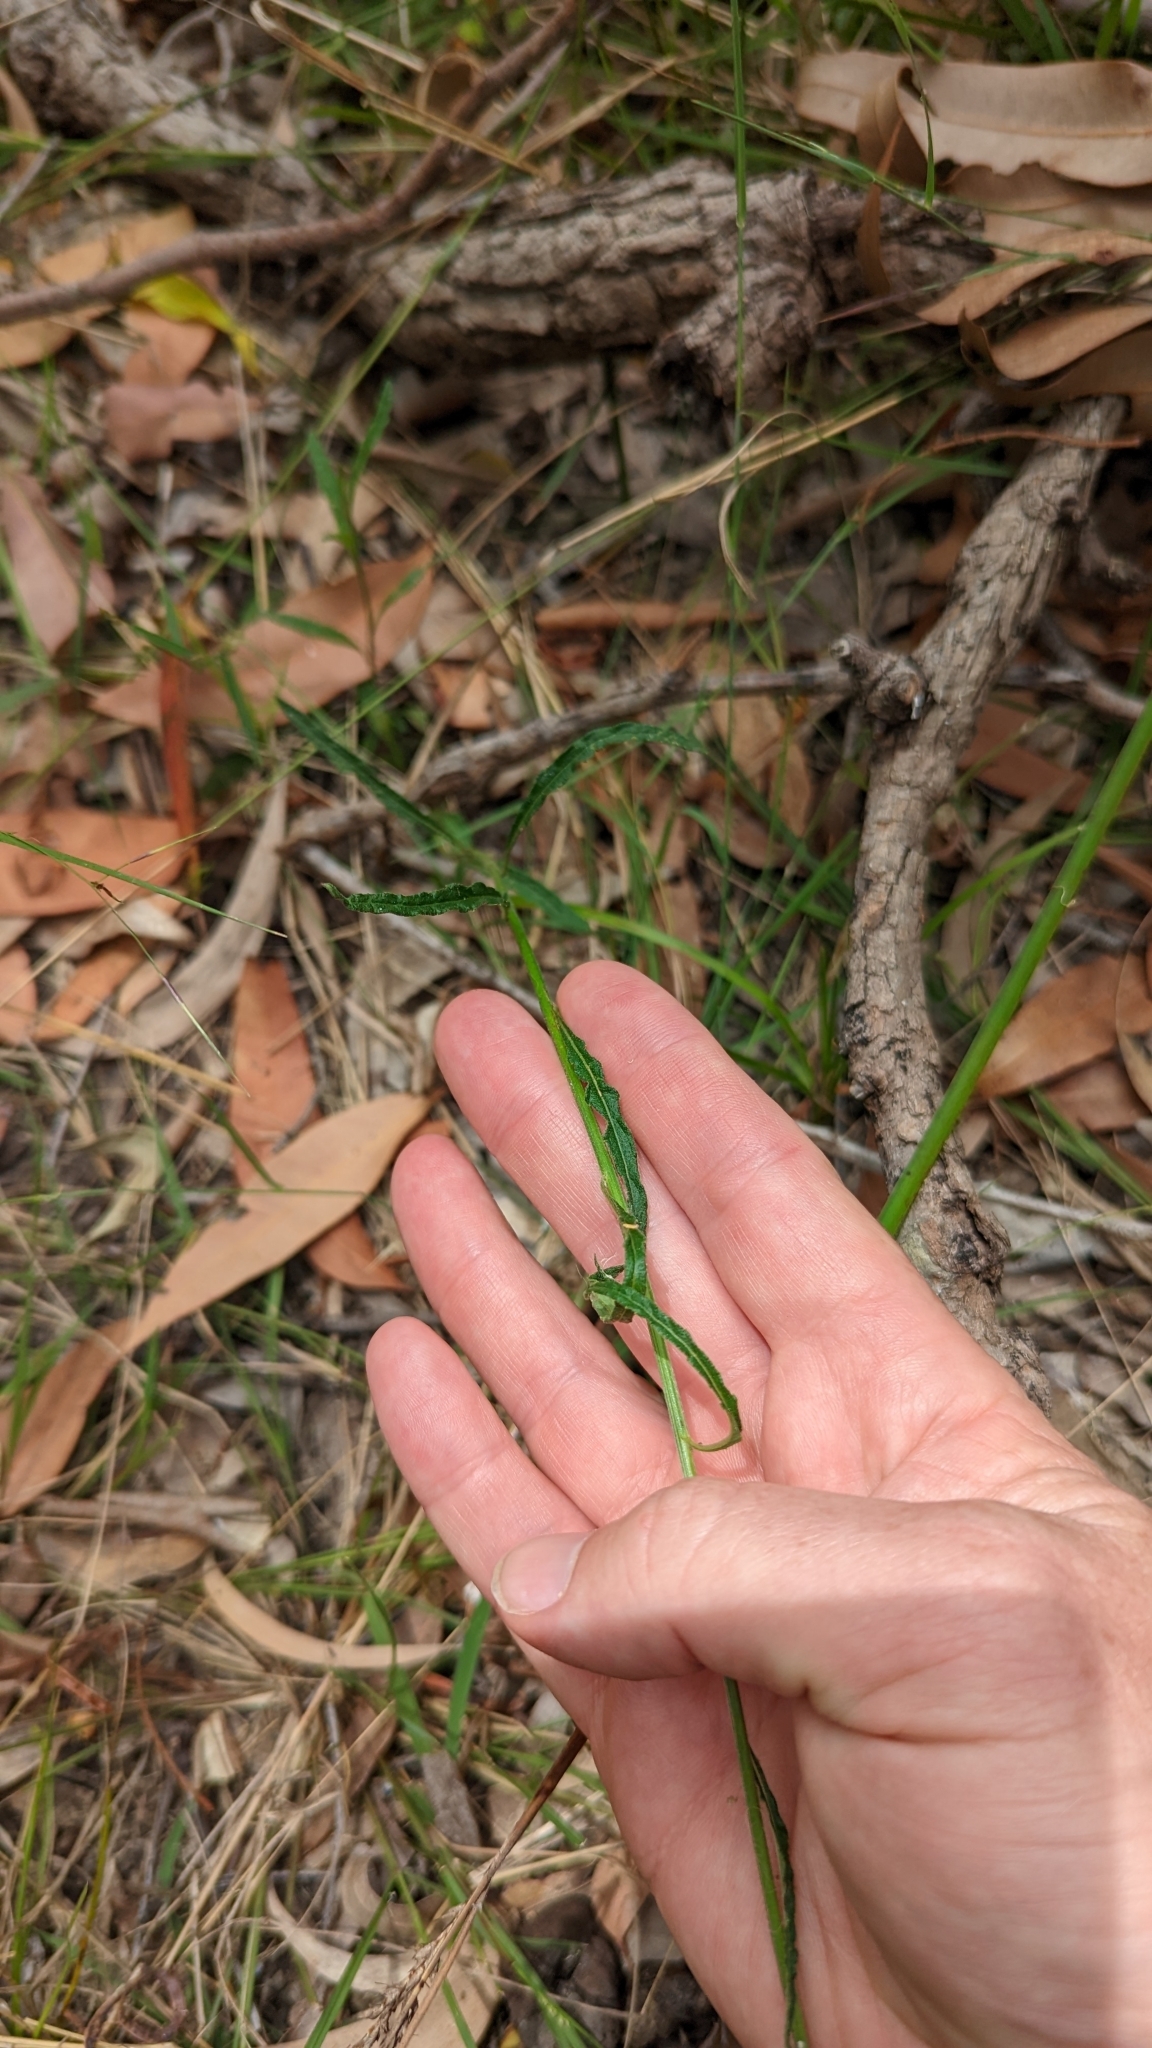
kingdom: Plantae
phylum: Tracheophyta
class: Magnoliopsida
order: Asterales
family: Asteraceae
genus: Cyanthillium
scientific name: Cyanthillium cinereum
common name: Little ironweed
